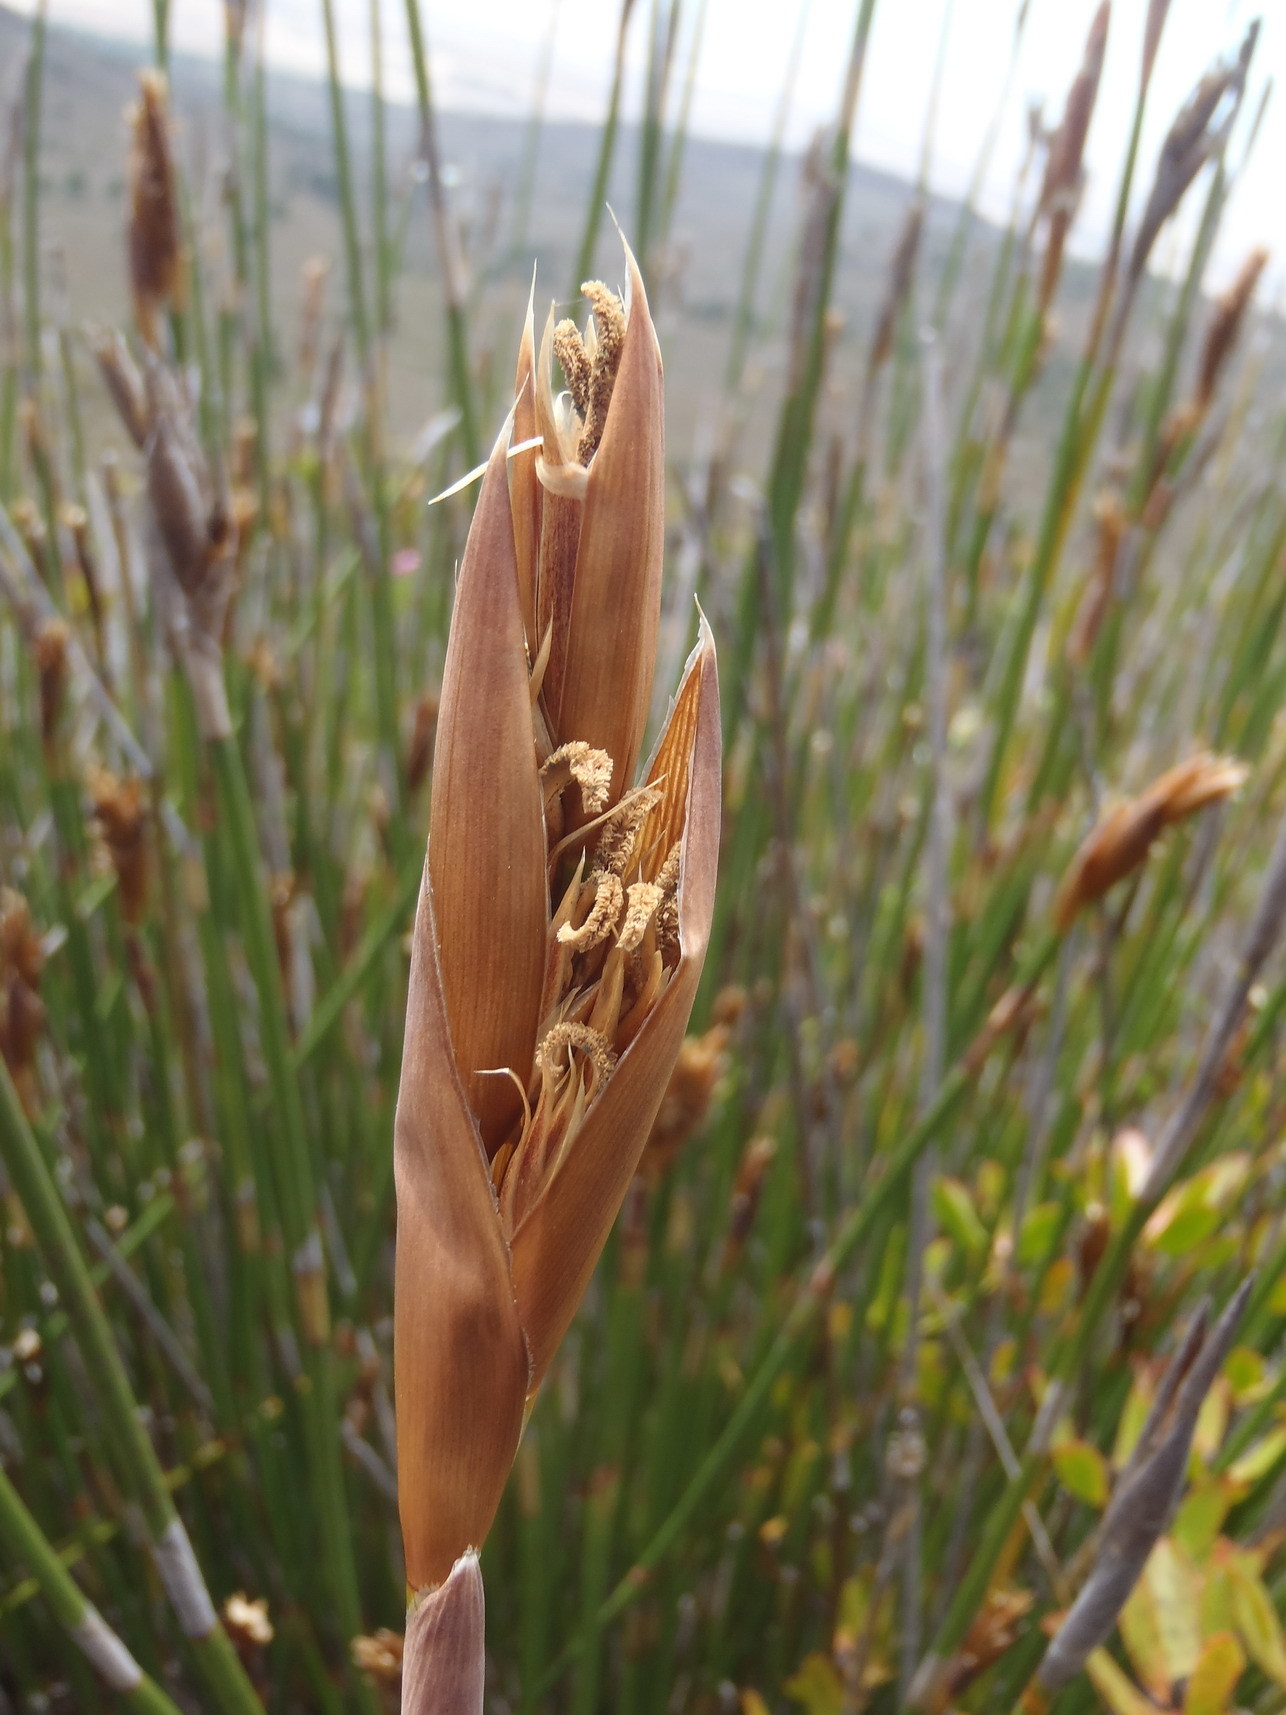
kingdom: Plantae
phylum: Tracheophyta
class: Liliopsida
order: Poales
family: Restionaceae
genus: Ceratocaryum
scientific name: Ceratocaryum argenteum
